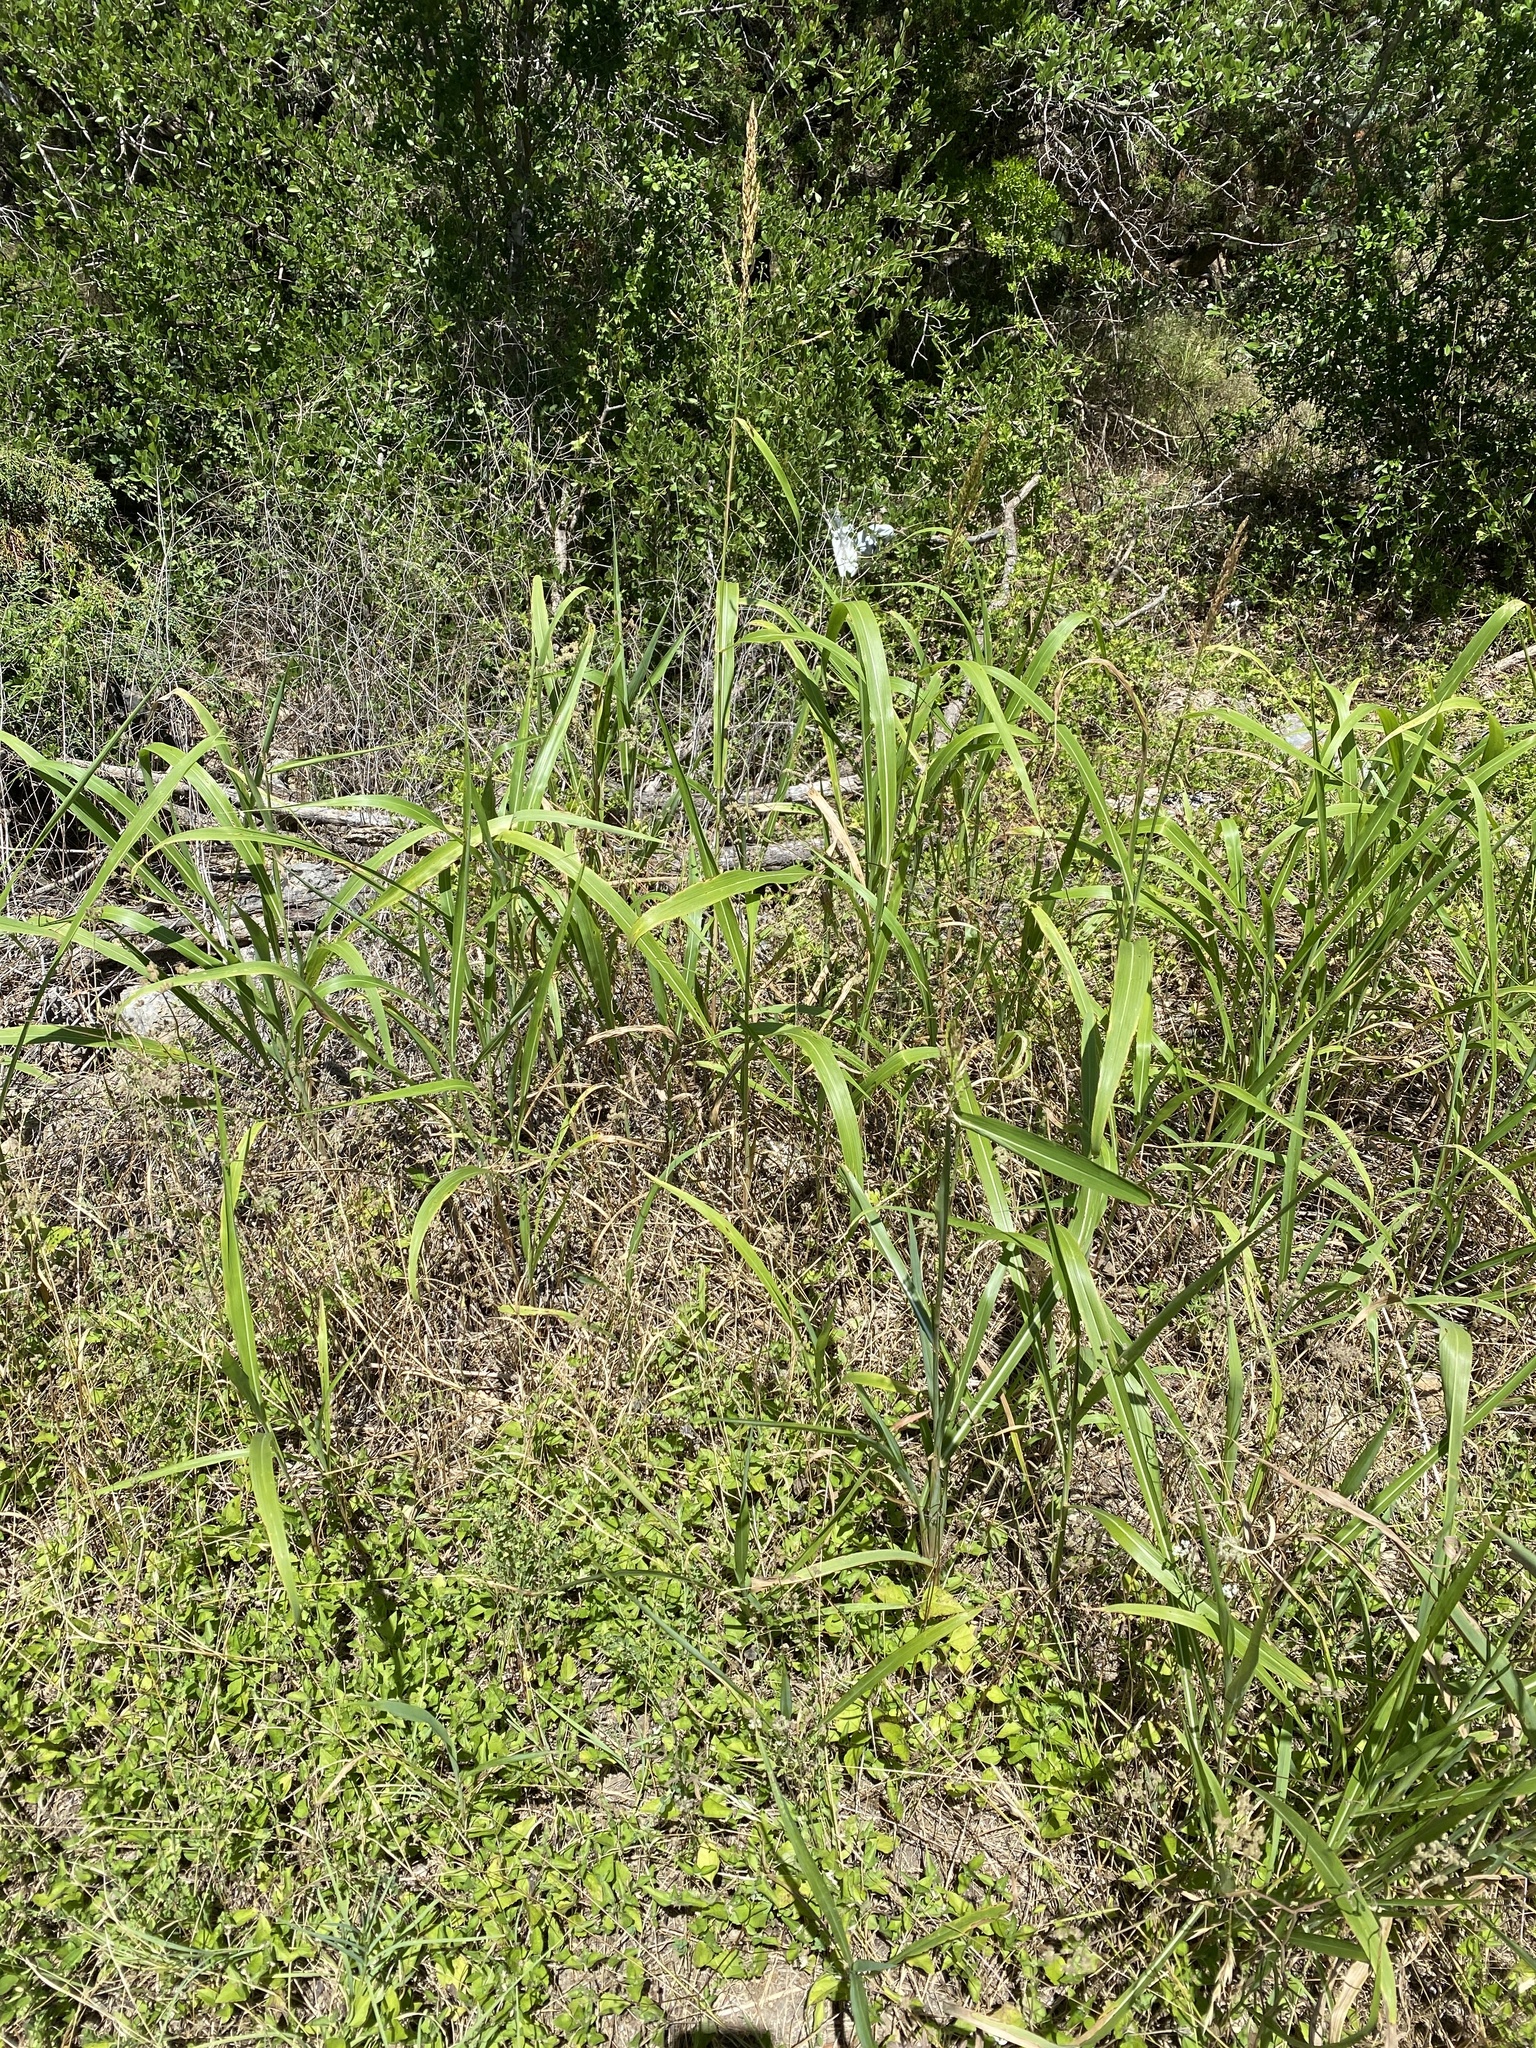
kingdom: Plantae
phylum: Tracheophyta
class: Liliopsida
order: Poales
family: Poaceae
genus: Sorghum
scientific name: Sorghum halepense
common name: Johnson-grass
